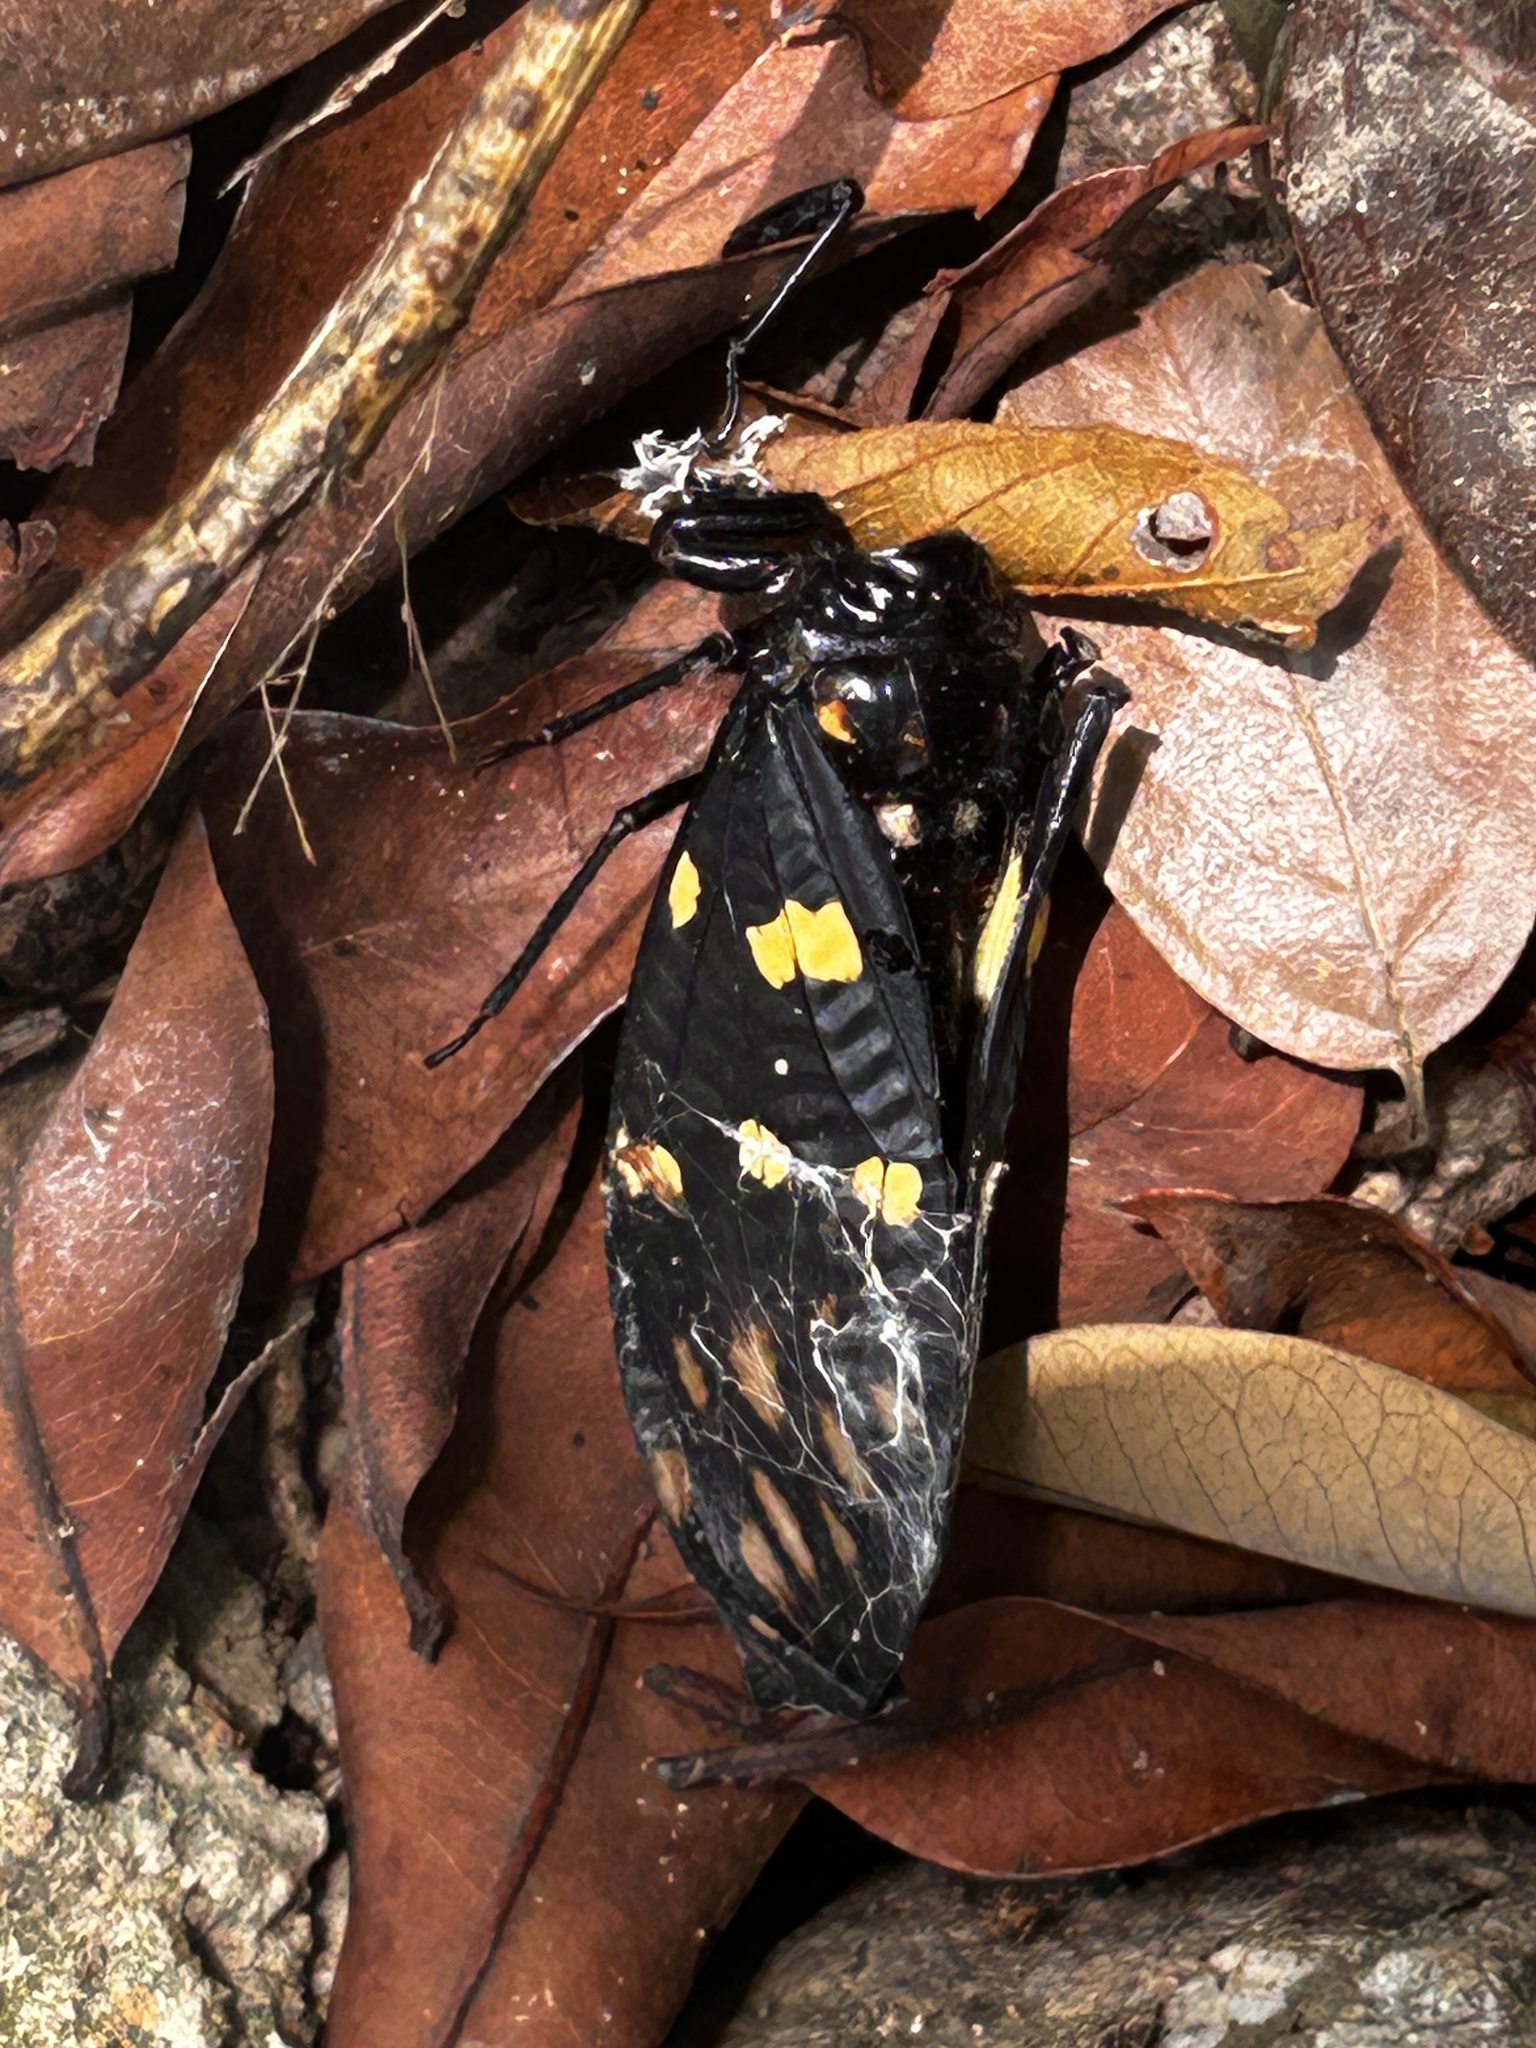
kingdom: Animalia
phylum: Arthropoda
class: Insecta
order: Hemiptera
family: Cicadidae
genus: Gaeana
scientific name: Gaeana maculata
